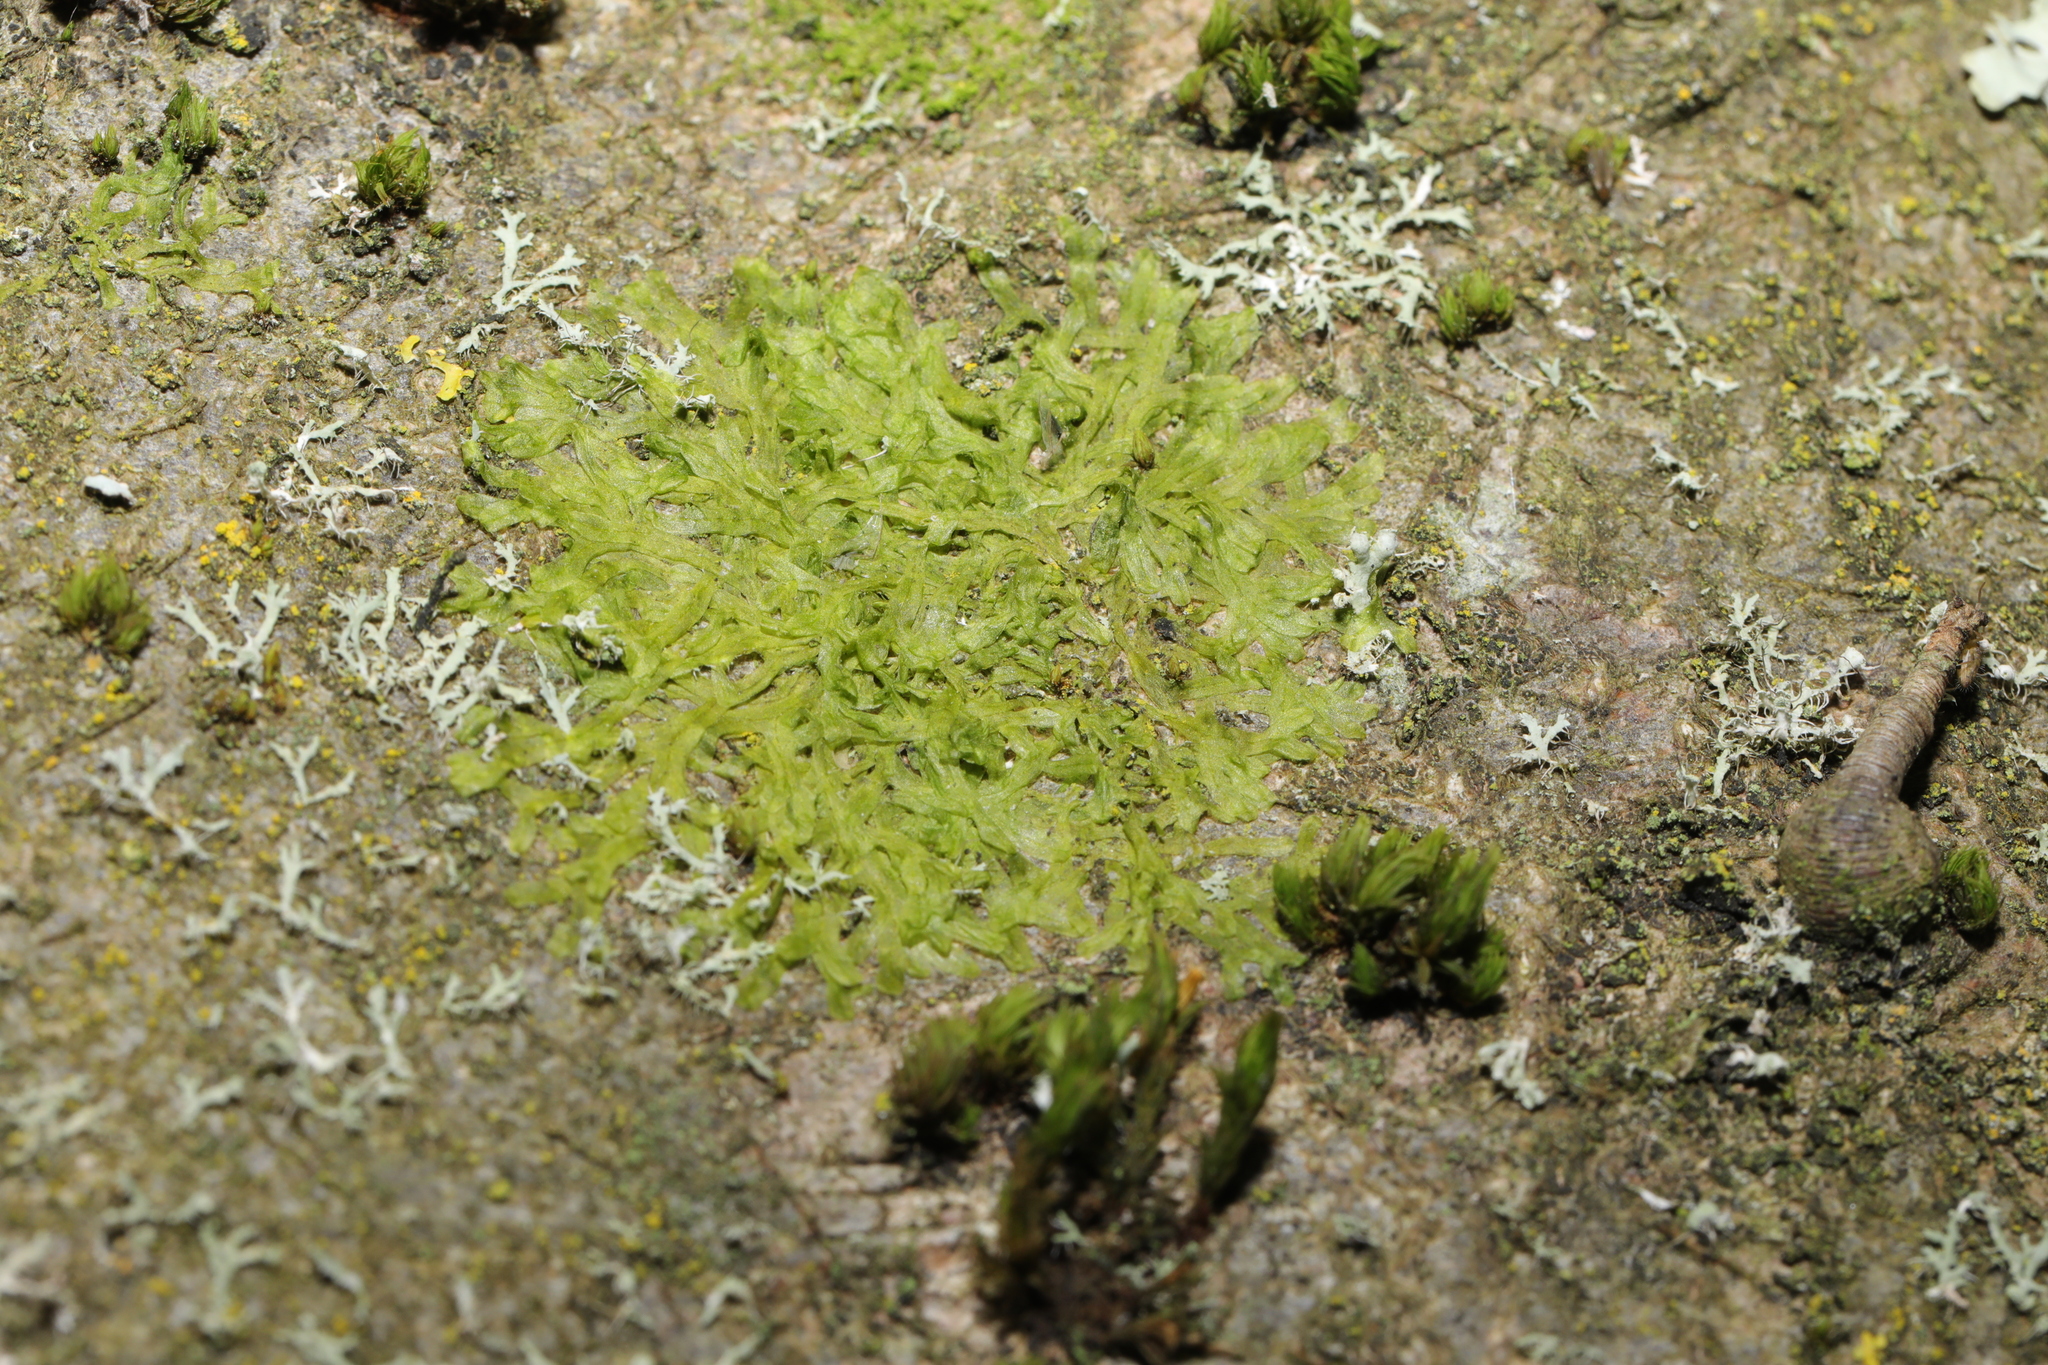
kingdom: Plantae
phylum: Marchantiophyta
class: Jungermanniopsida
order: Metzgeriales
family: Metzgeriaceae
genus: Metzgeria
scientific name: Metzgeria furcata
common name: Forked veilwort
